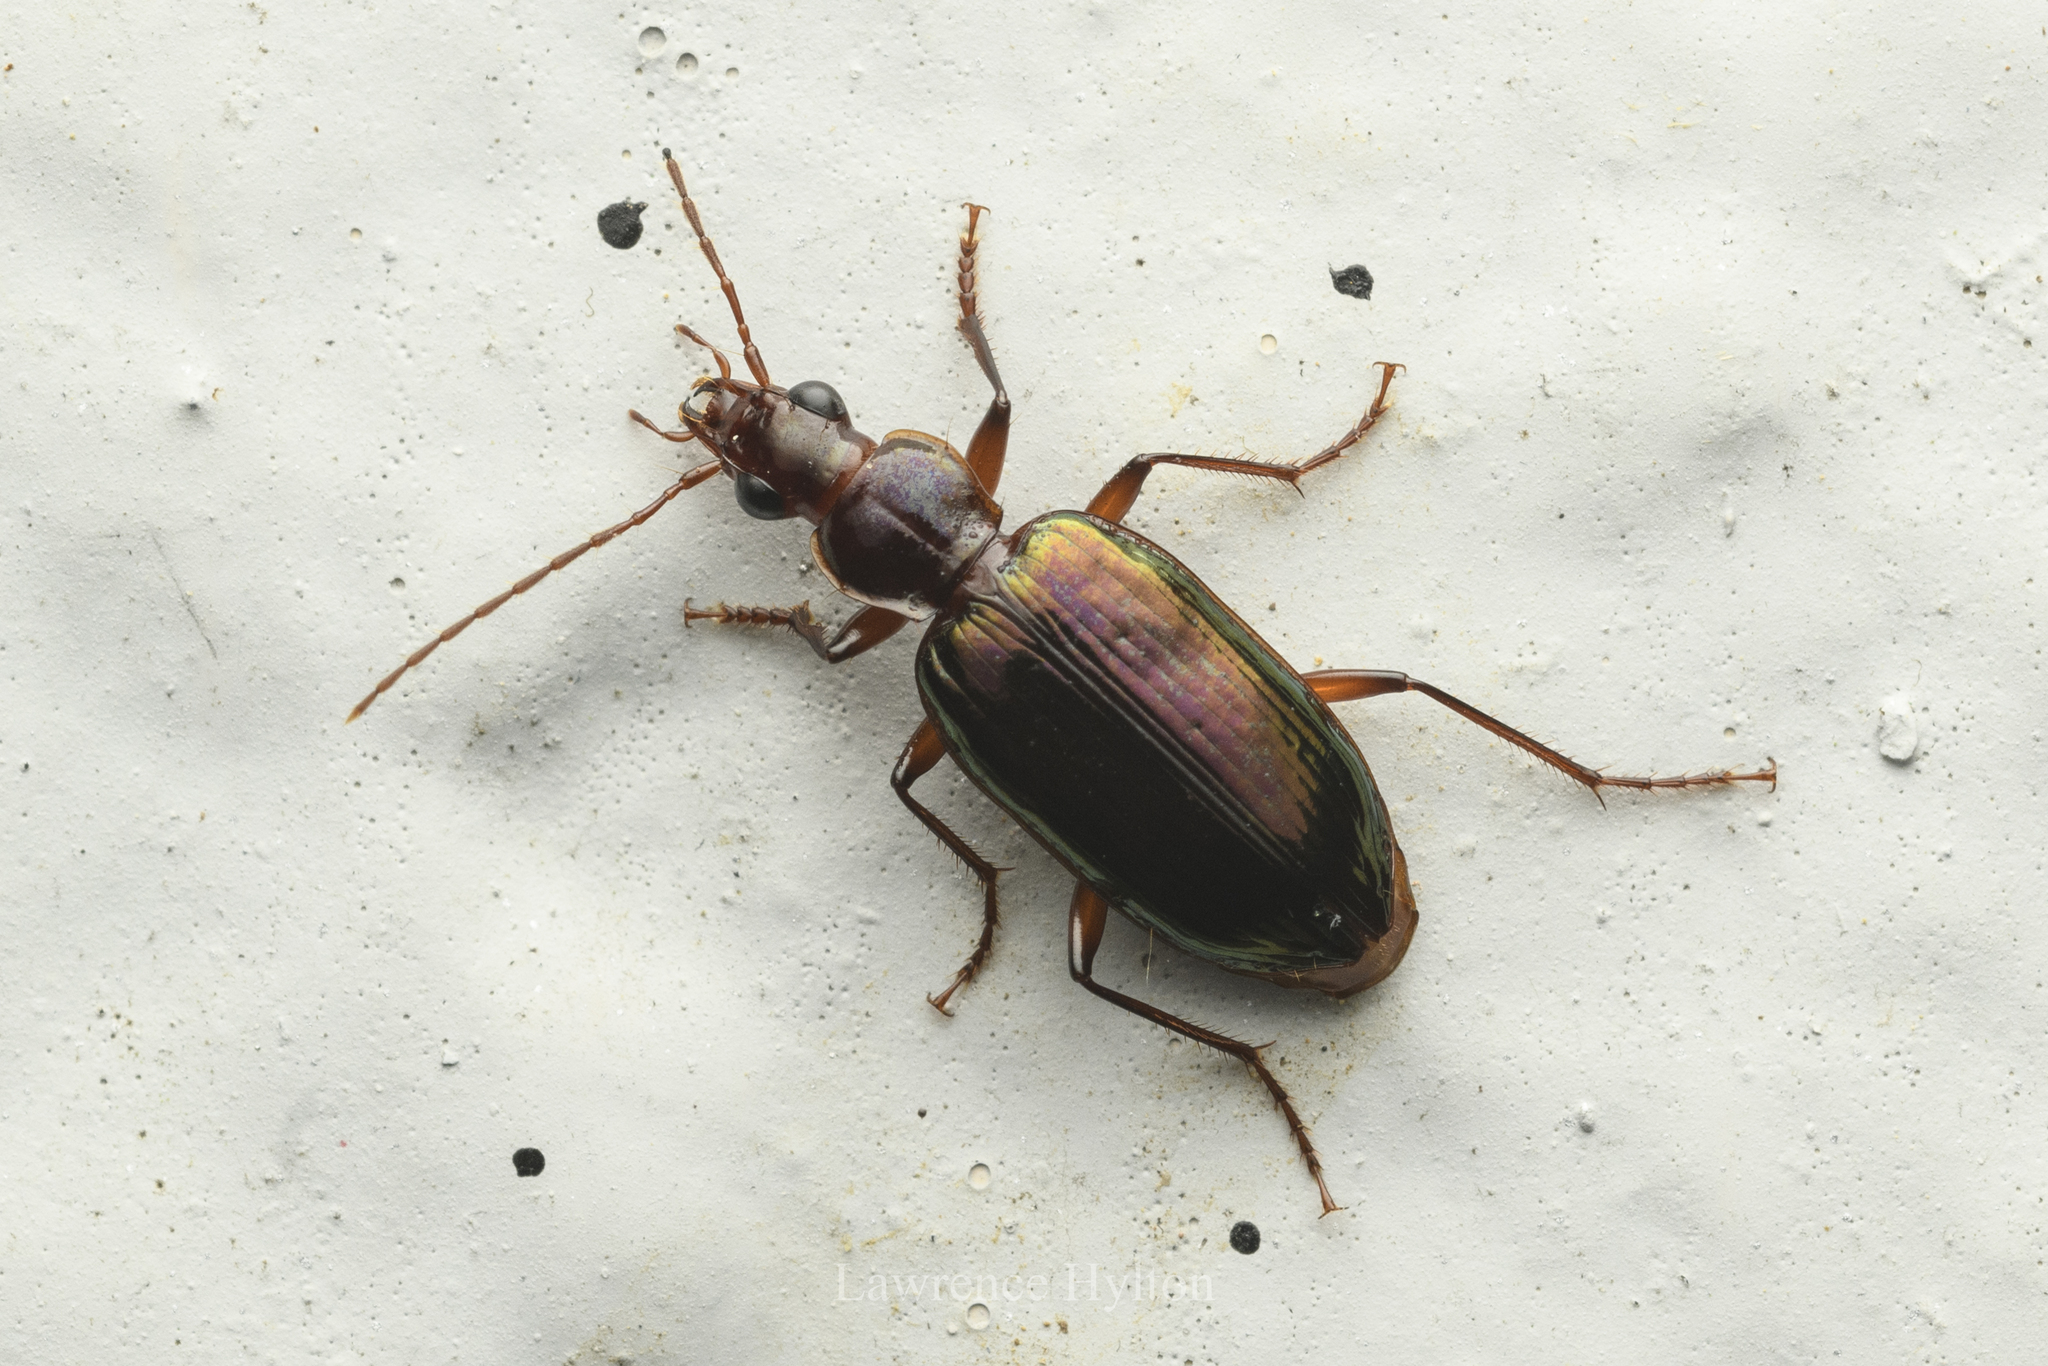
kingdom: Animalia
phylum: Arthropoda
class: Insecta
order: Coleoptera
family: Carabidae
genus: Metacolpodes
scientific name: Metacolpodes buchannani
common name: Buchanan's harp ground beetle
